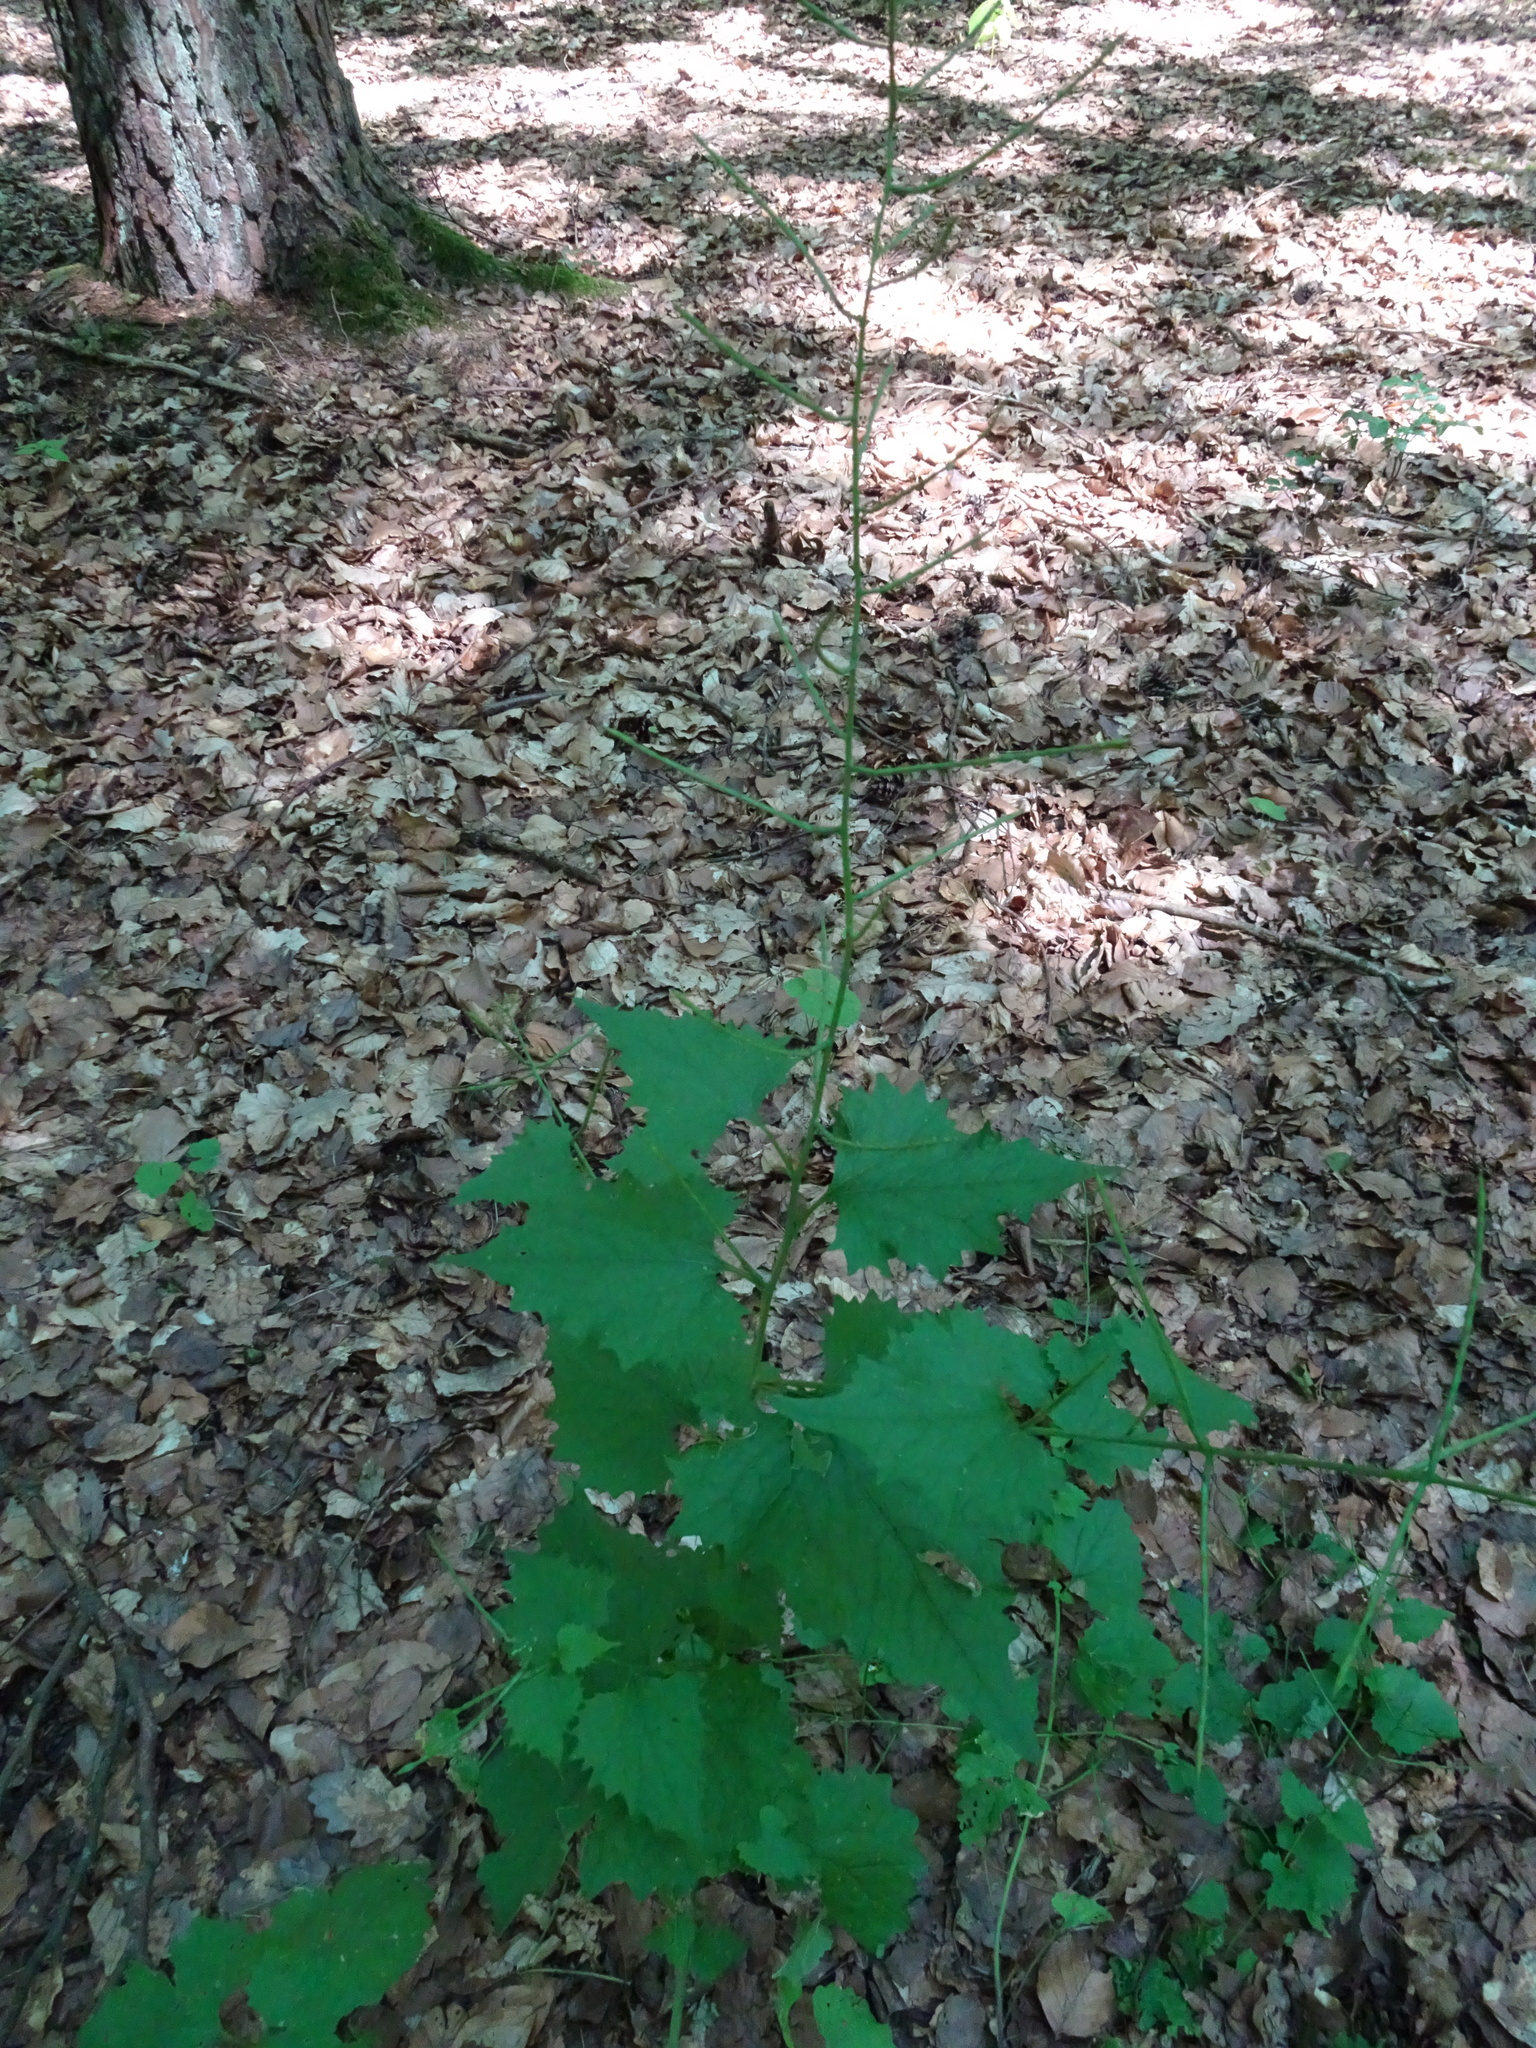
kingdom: Plantae
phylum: Tracheophyta
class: Magnoliopsida
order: Brassicales
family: Brassicaceae
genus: Alliaria
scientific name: Alliaria petiolata
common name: Garlic mustard
